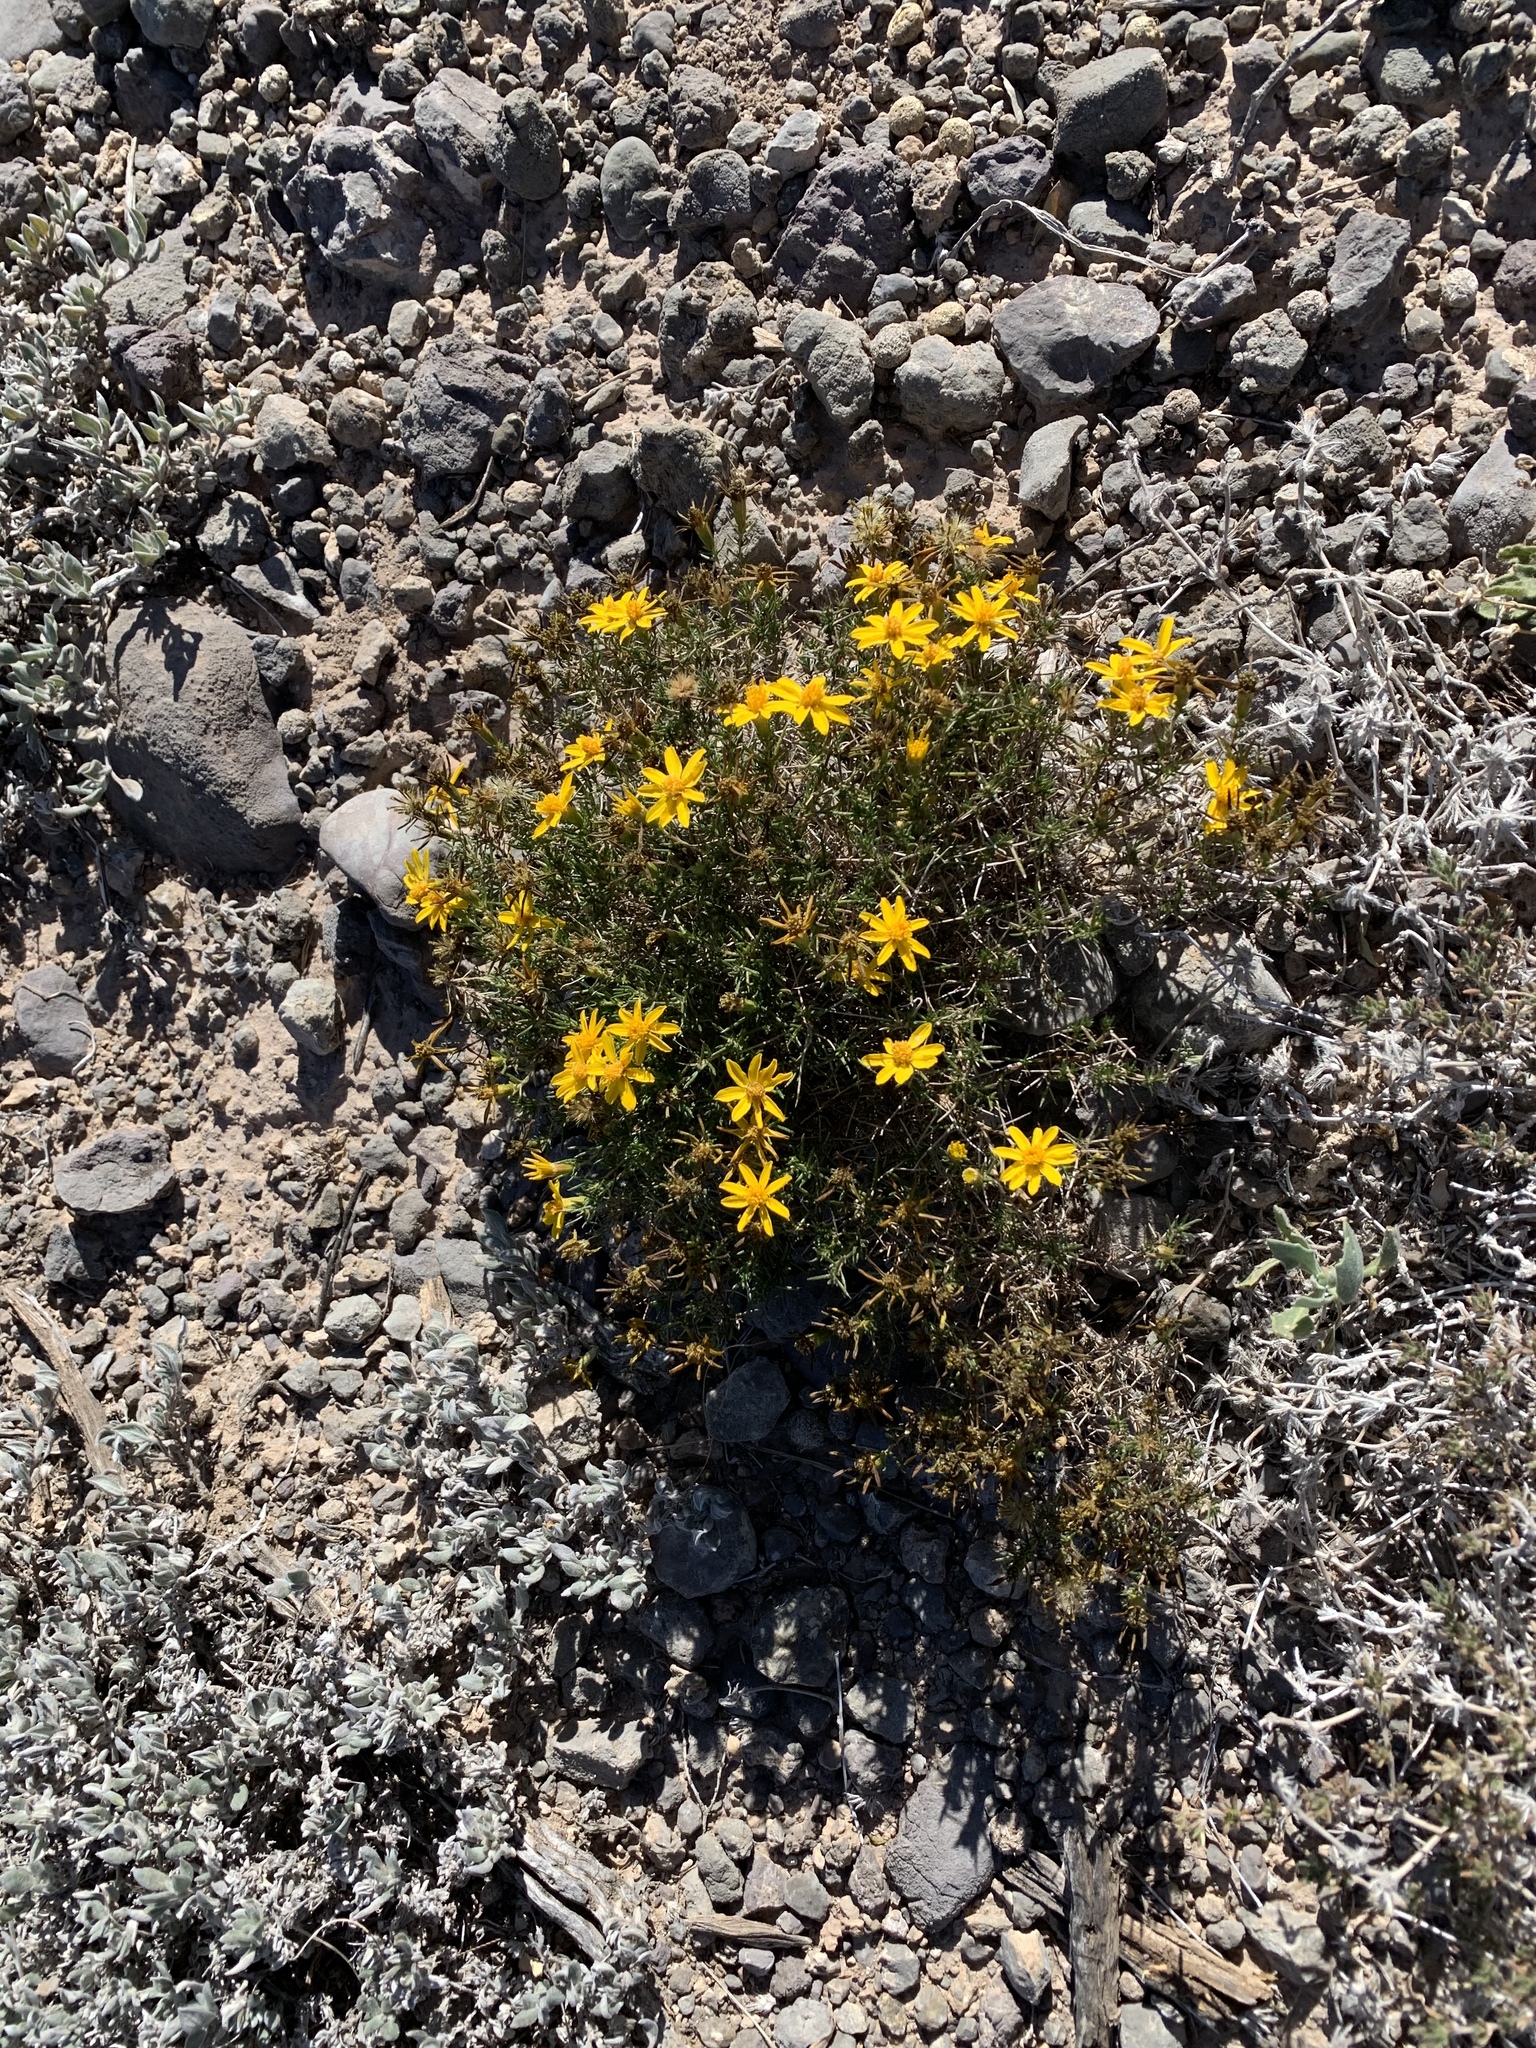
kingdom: Plantae
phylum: Tracheophyta
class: Magnoliopsida
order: Asterales
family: Asteraceae
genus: Thymophylla
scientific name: Thymophylla acerosa
